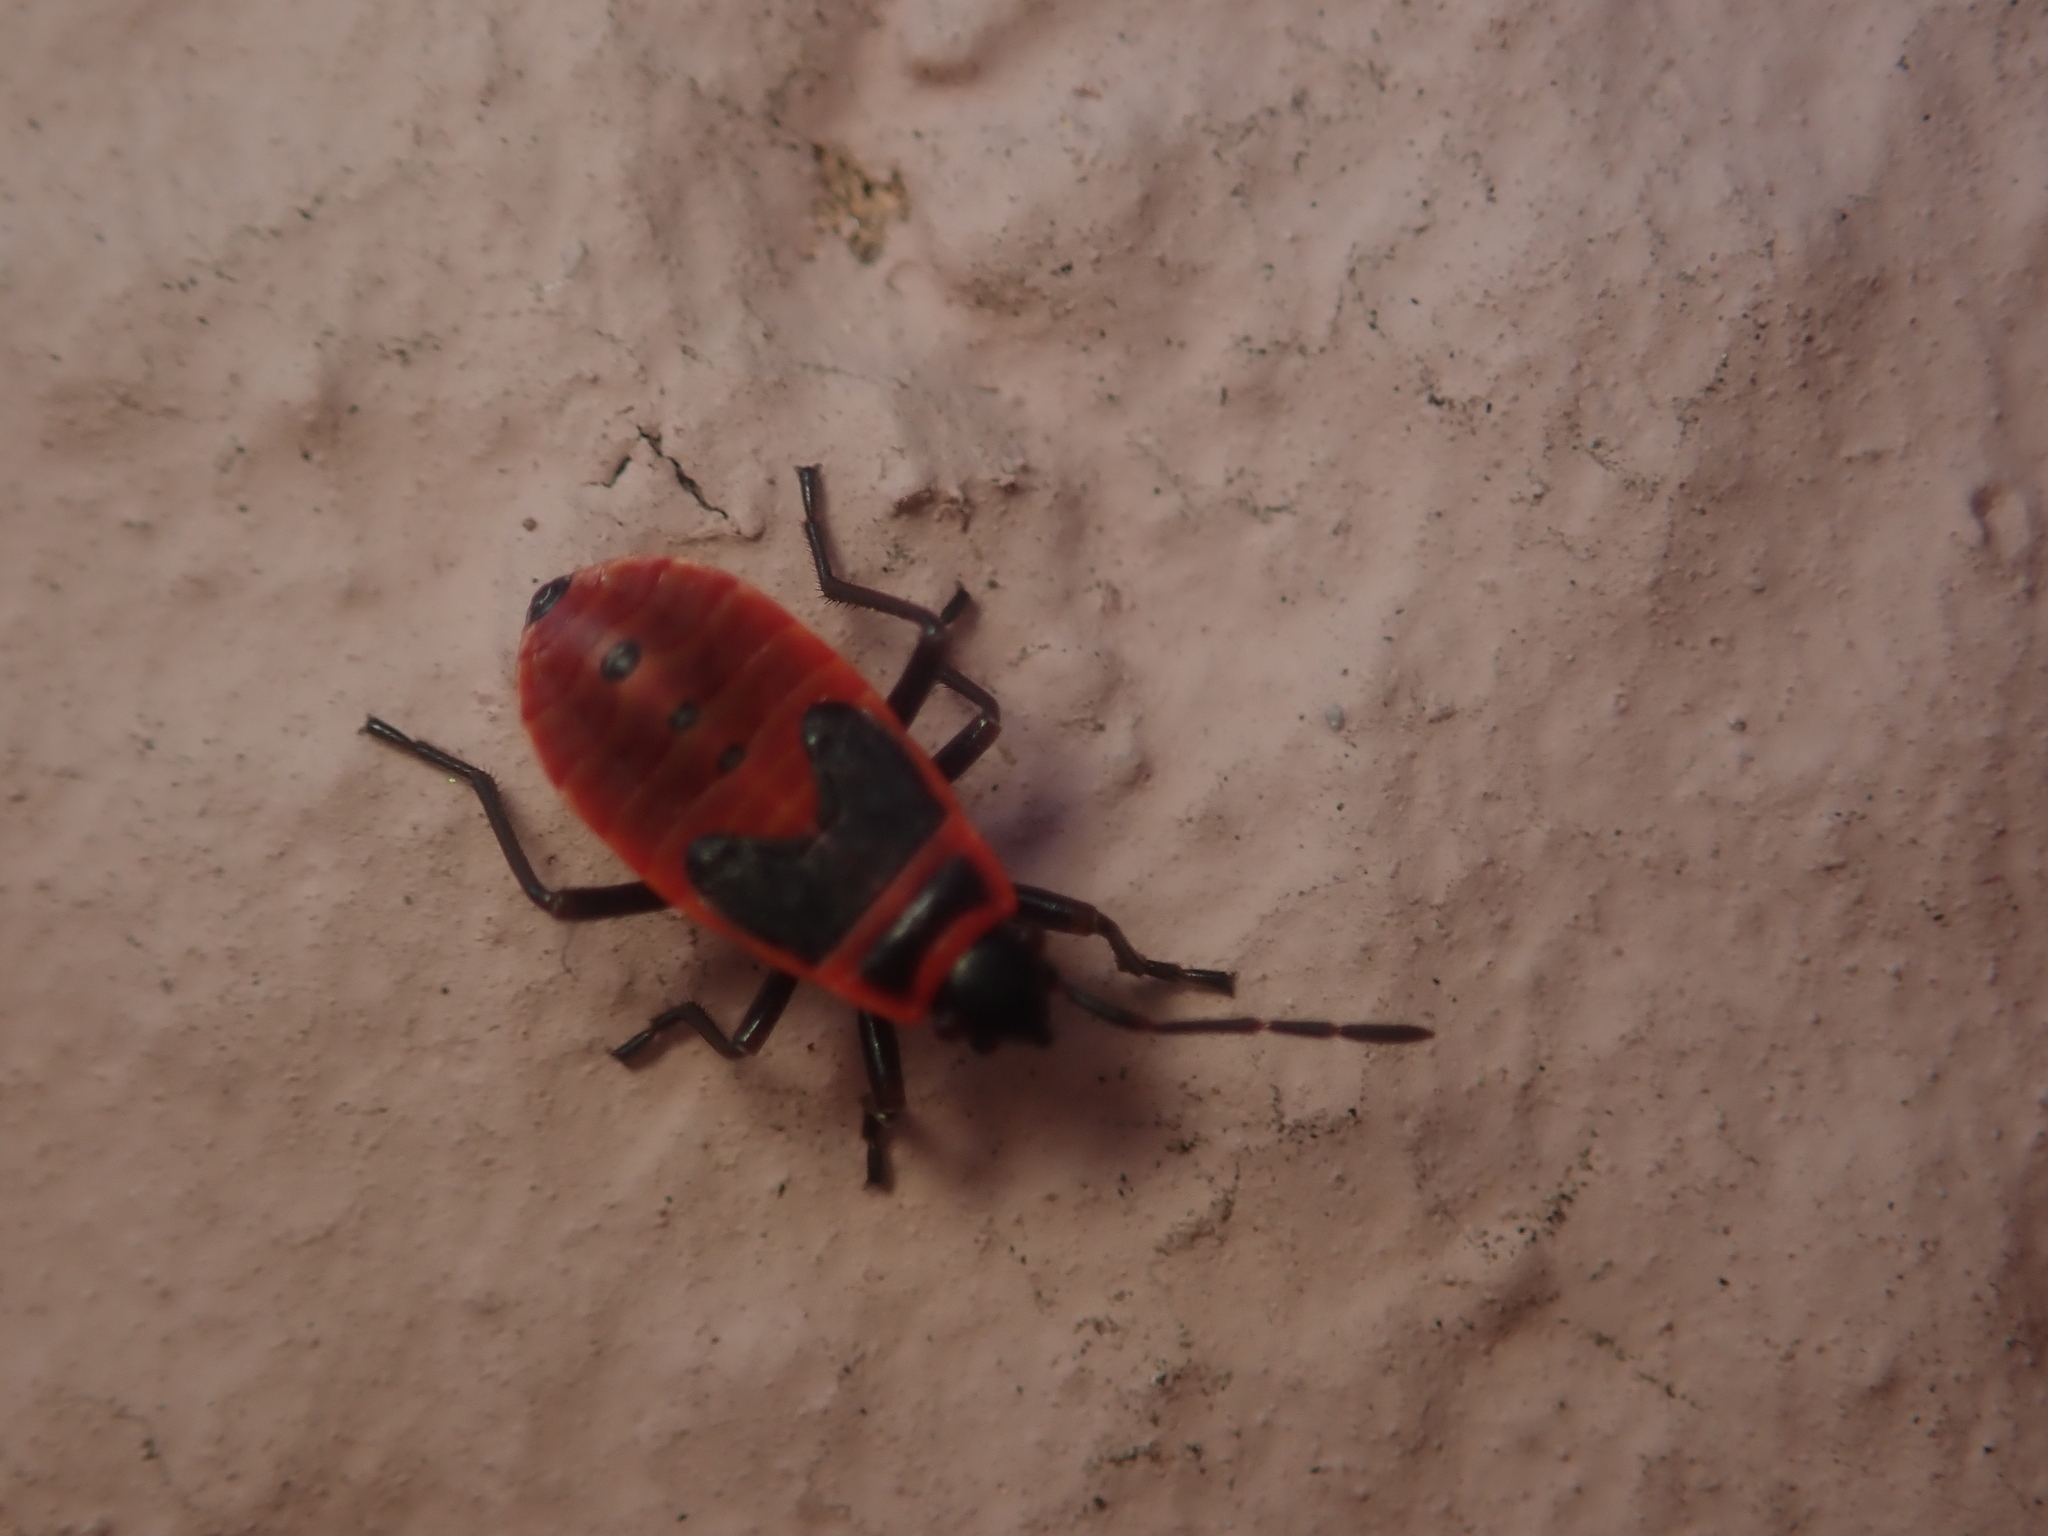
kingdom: Animalia
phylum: Arthropoda
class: Insecta
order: Hemiptera
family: Pyrrhocoridae
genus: Pyrrhocoris
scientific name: Pyrrhocoris apterus
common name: Firebug
